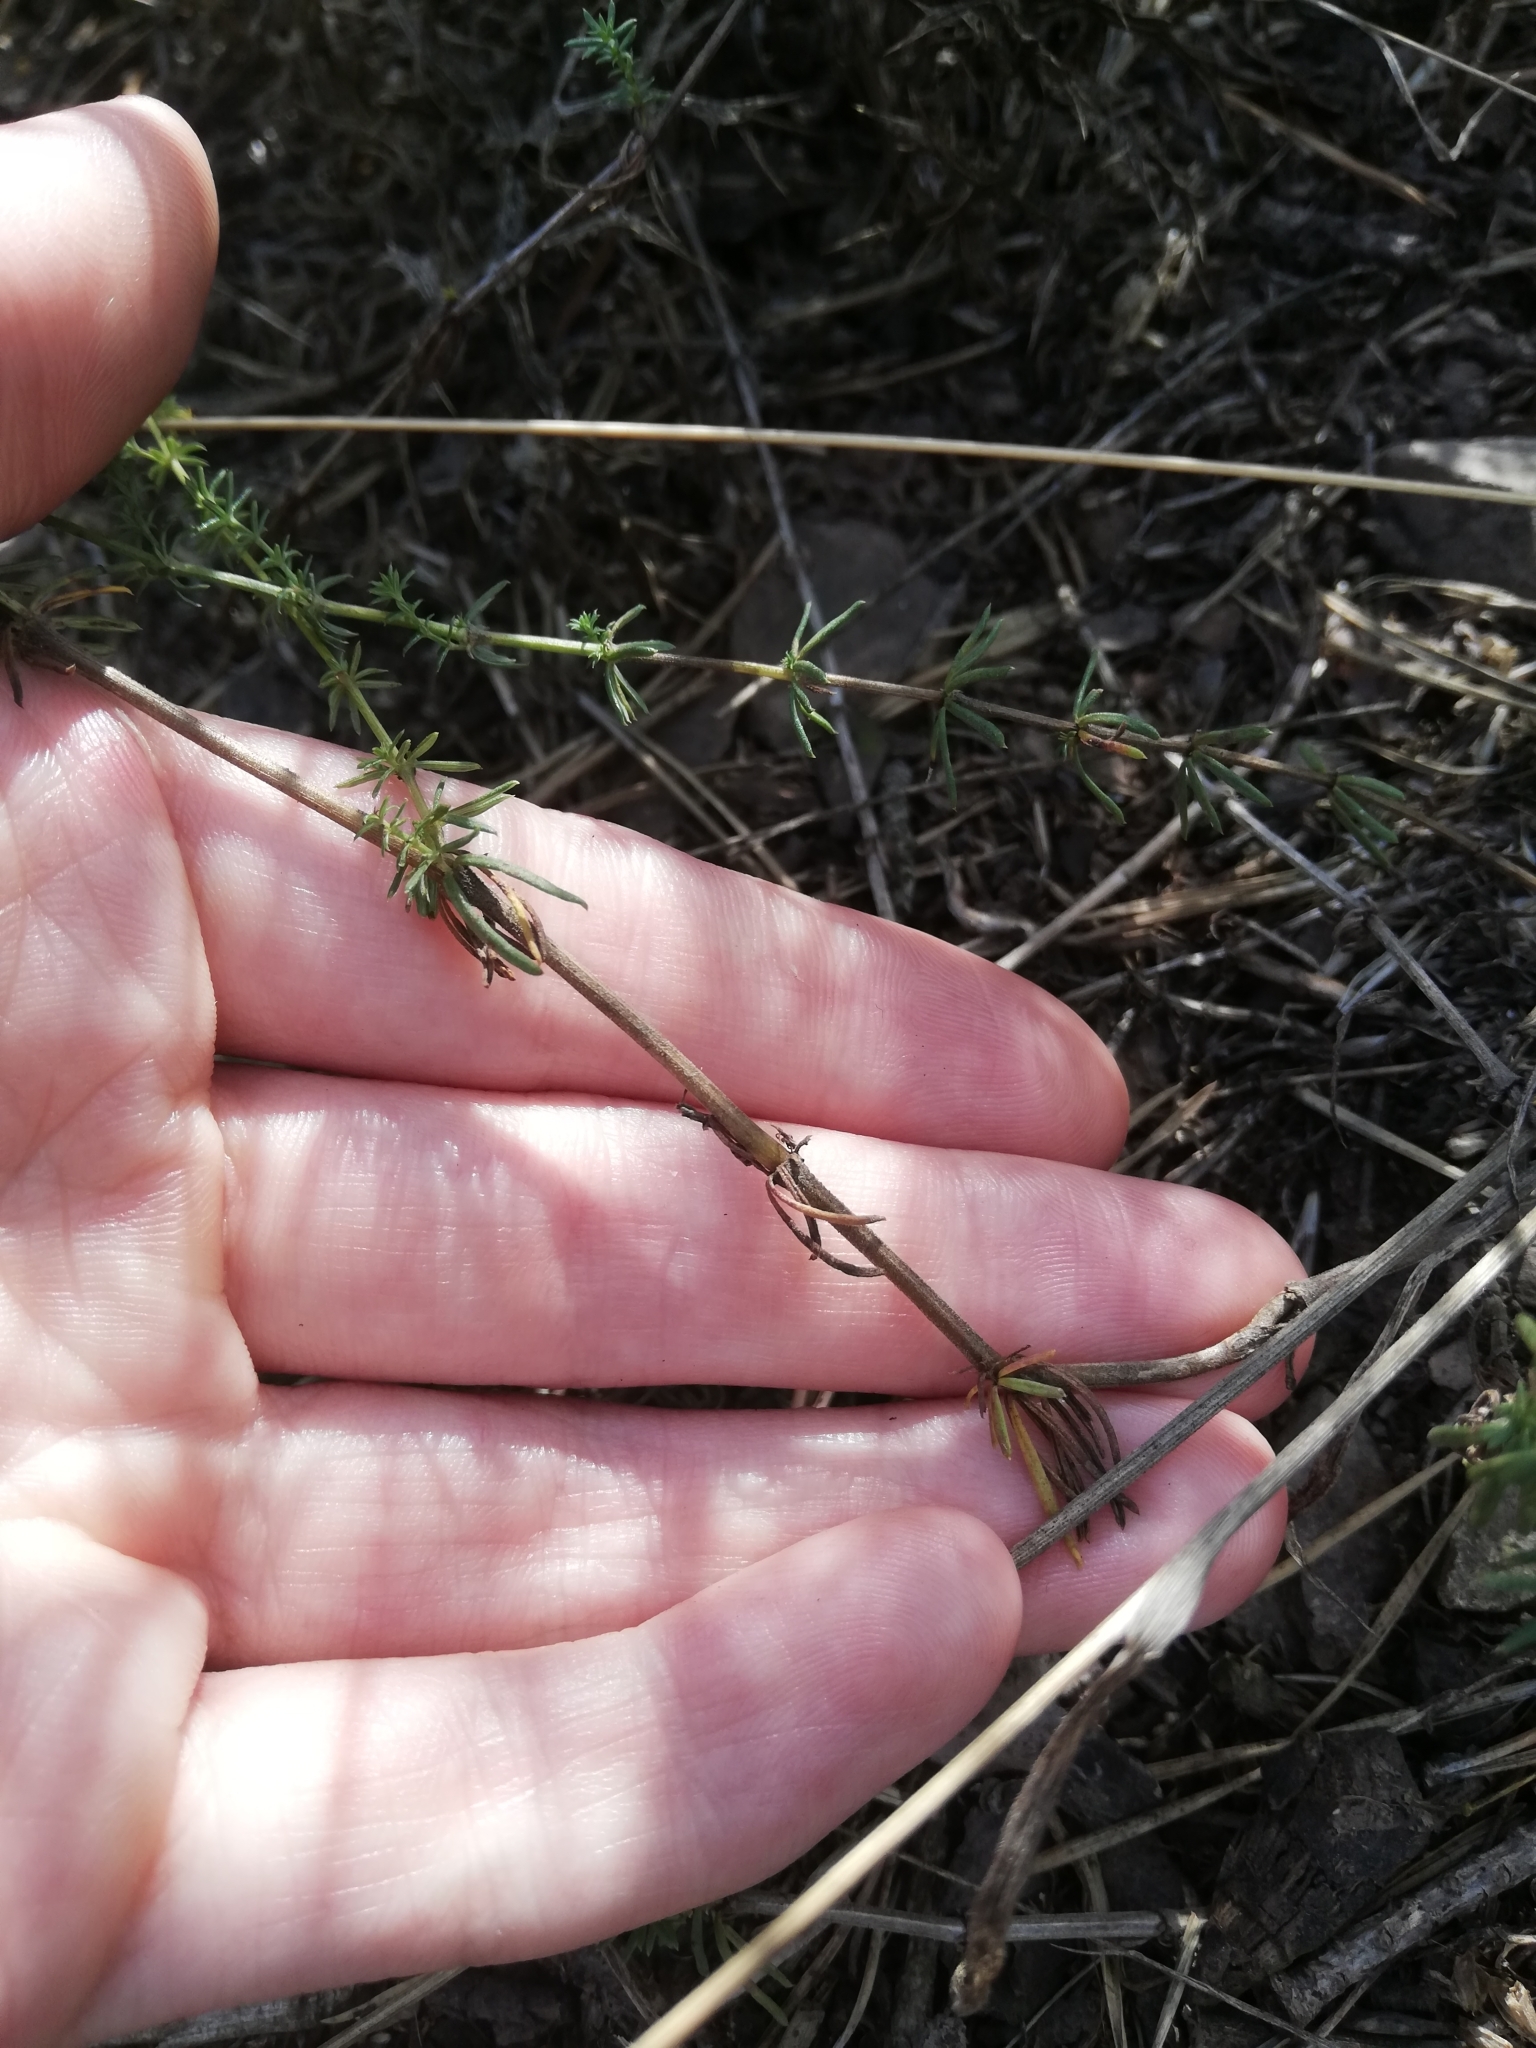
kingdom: Plantae
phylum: Tracheophyta
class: Magnoliopsida
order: Gentianales
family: Rubiaceae
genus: Galium
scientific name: Galium verum
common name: Lady's bedstraw
